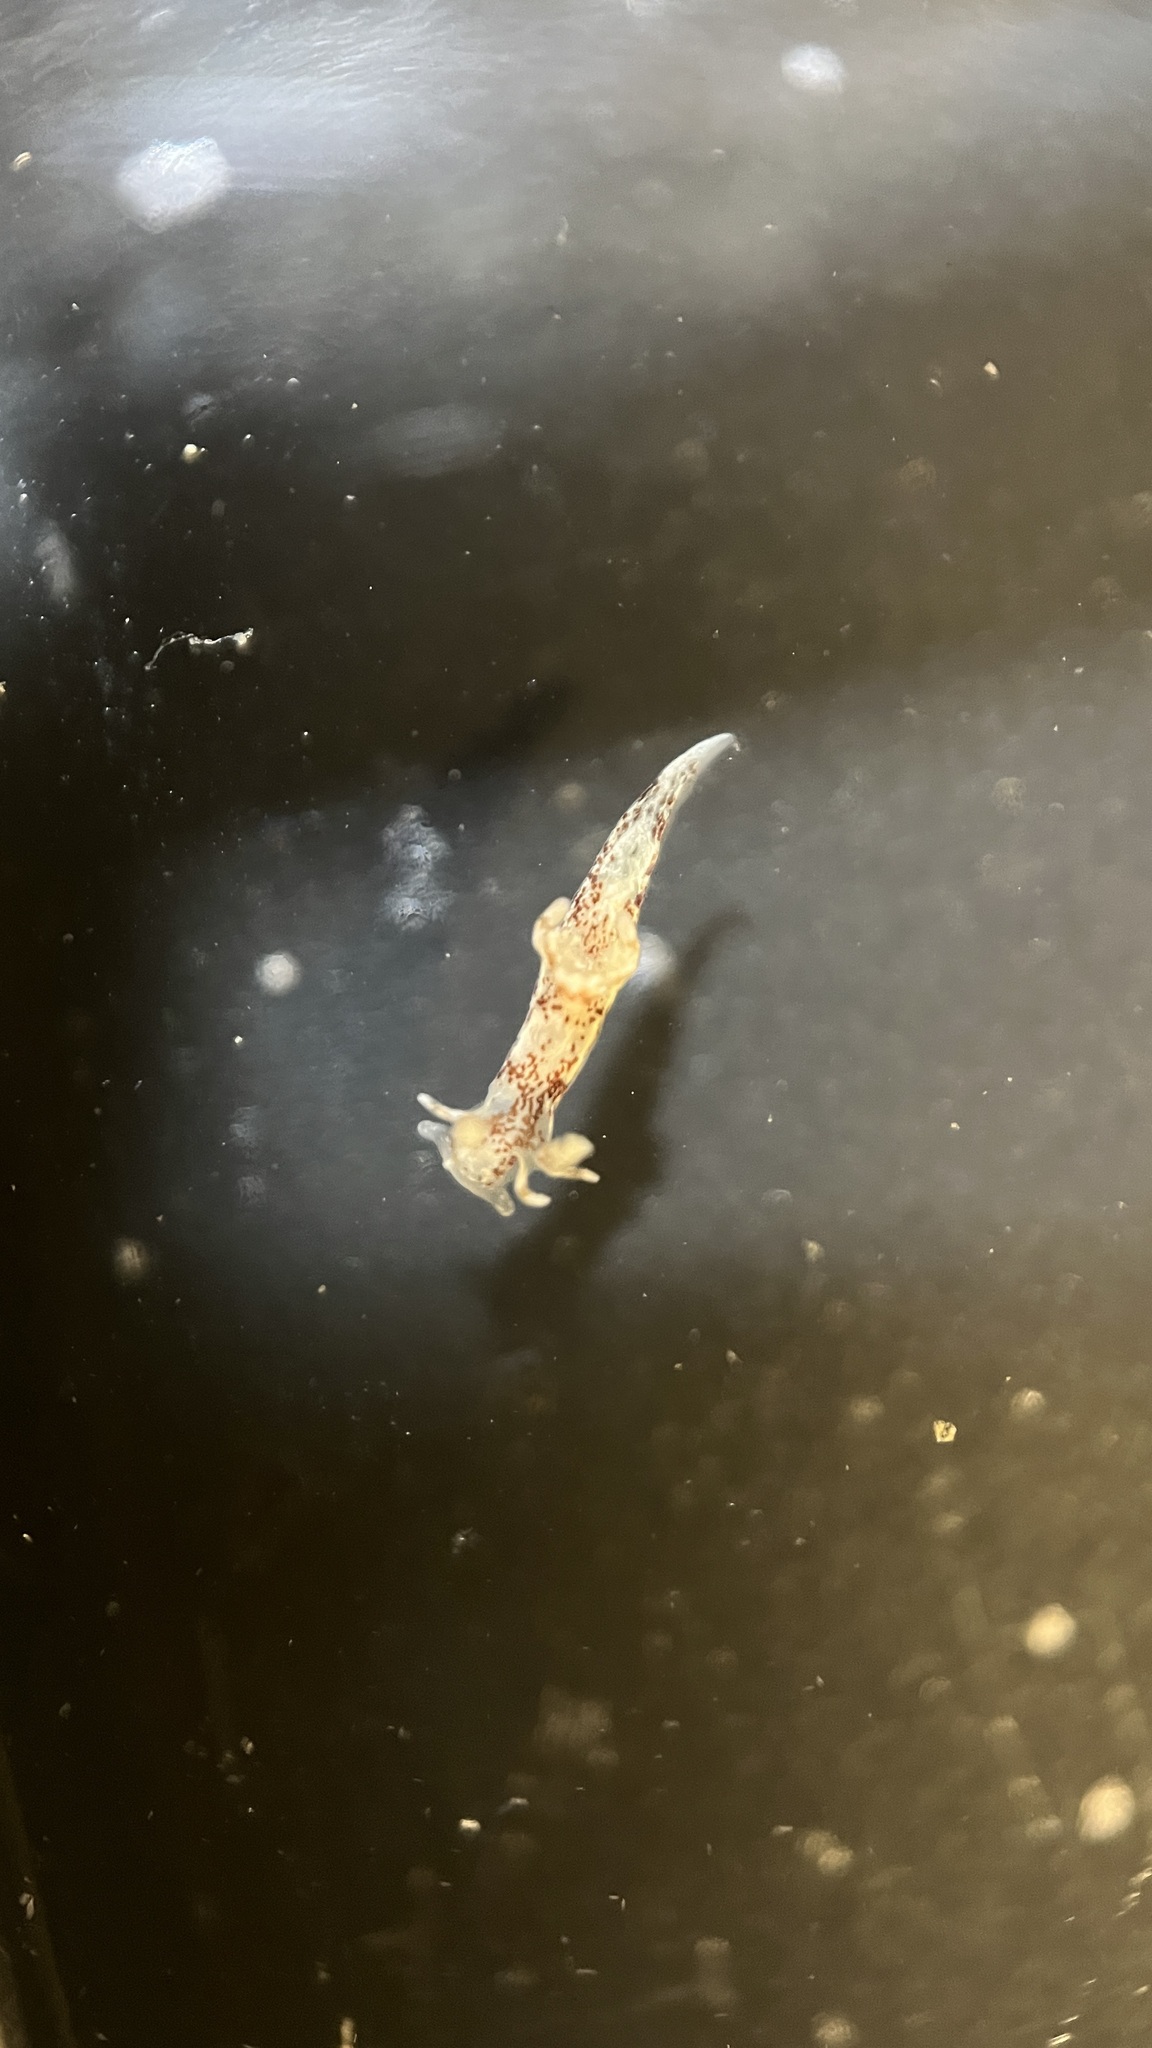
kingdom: Animalia
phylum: Mollusca
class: Gastropoda
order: Nudibranchia
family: Goniodorididae
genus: Ancula
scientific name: Ancula mapae
